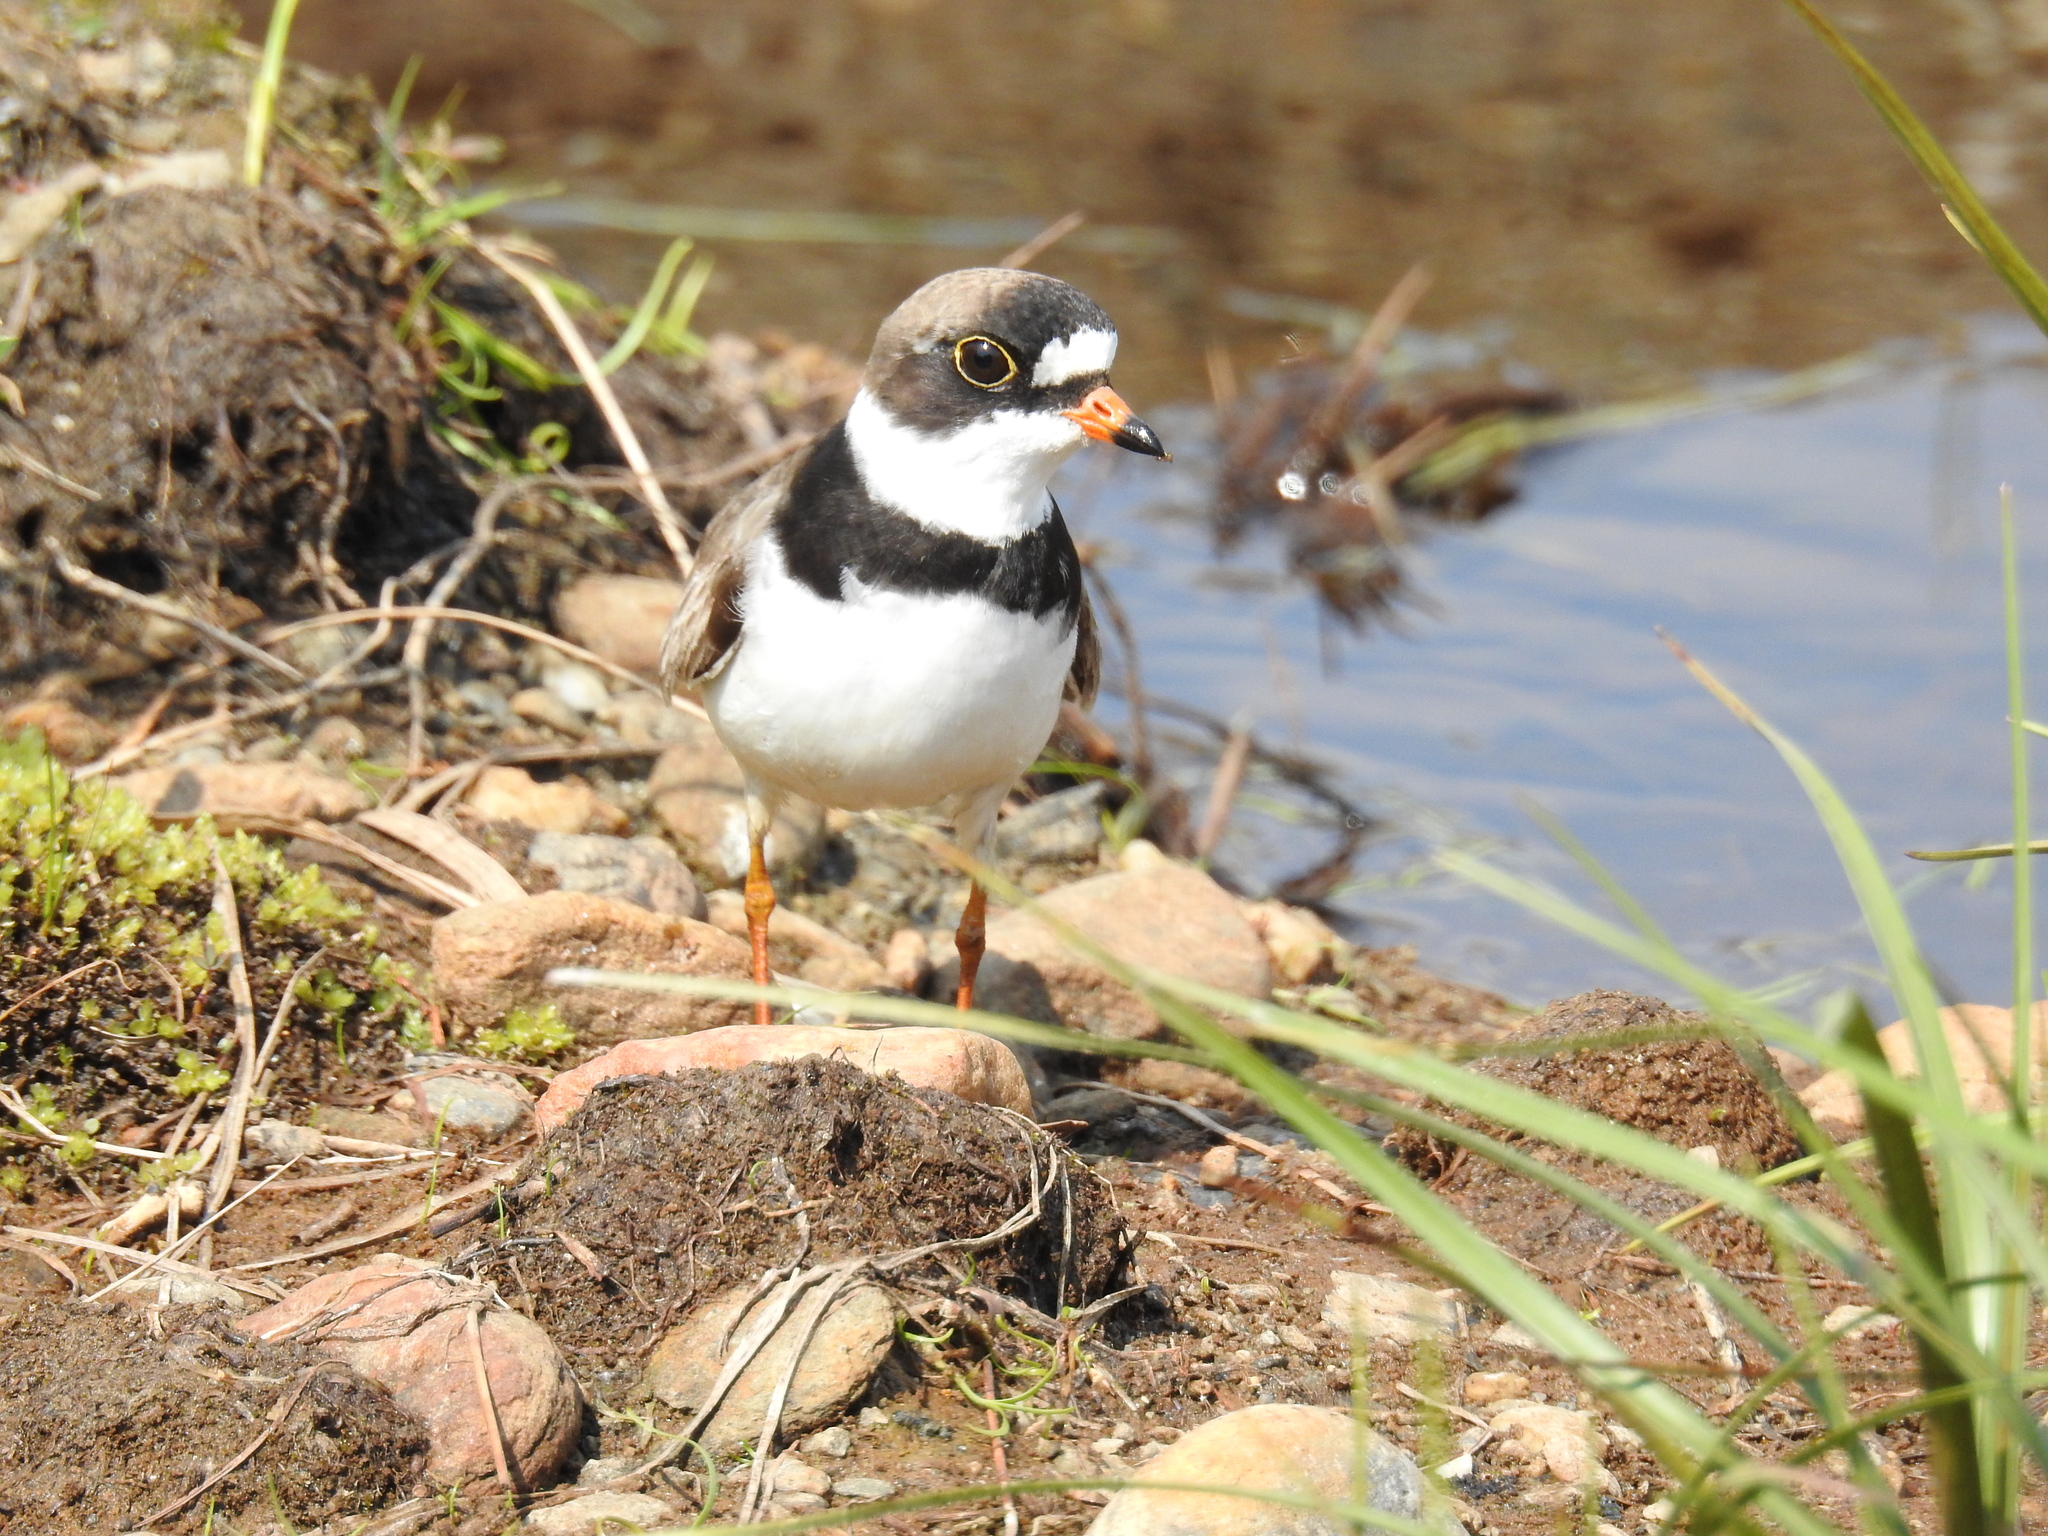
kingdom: Animalia
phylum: Chordata
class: Aves
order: Charadriiformes
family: Charadriidae
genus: Charadrius
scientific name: Charadrius semipalmatus
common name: Semipalmated plover
